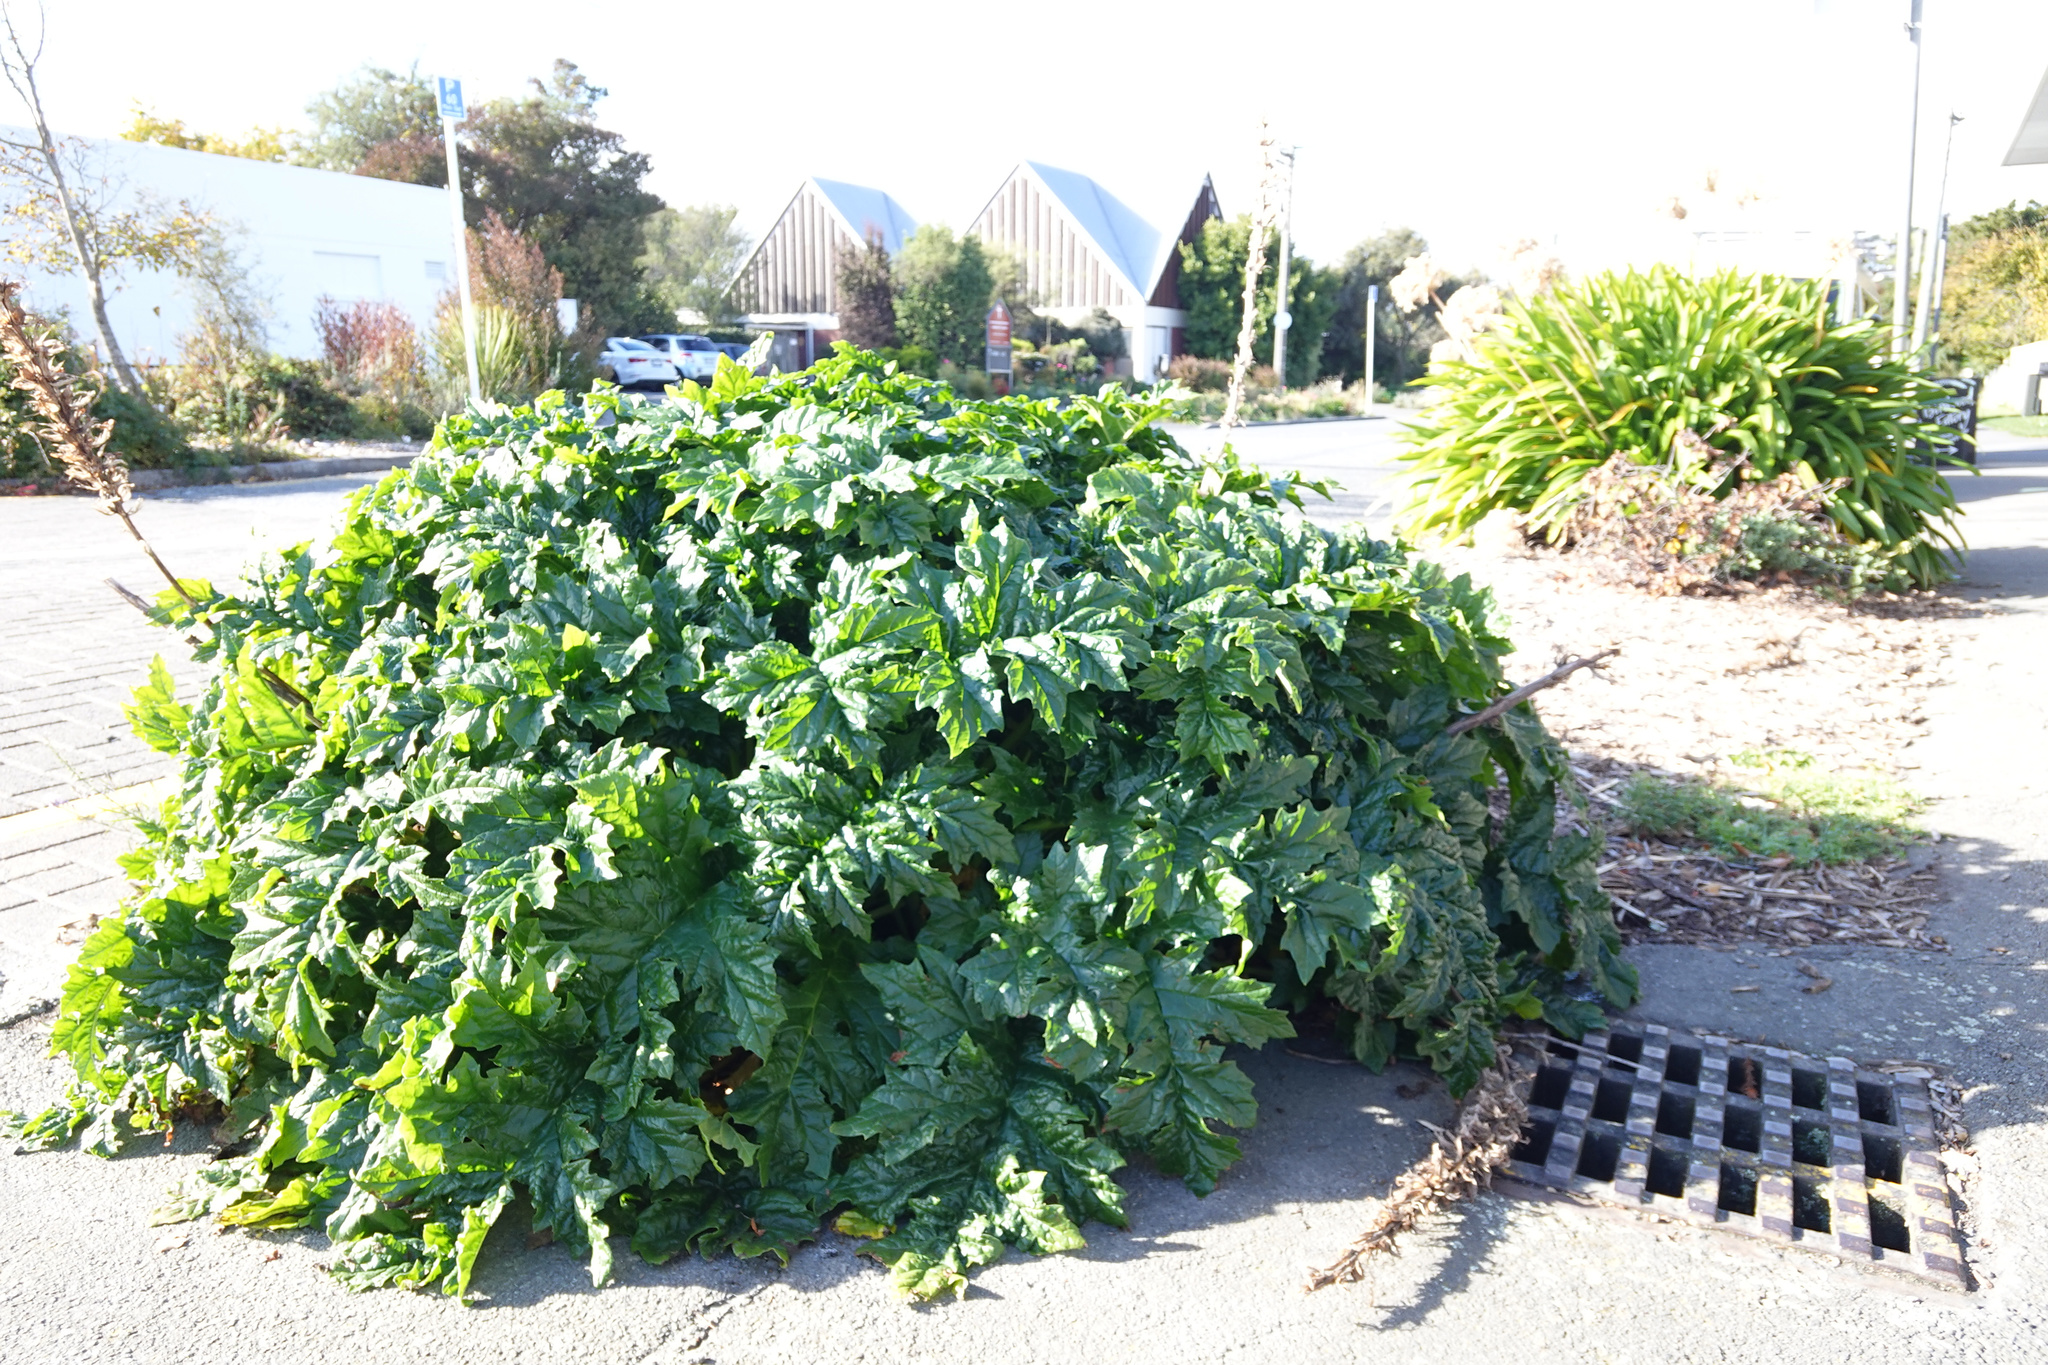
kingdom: Plantae
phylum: Tracheophyta
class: Magnoliopsida
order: Lamiales
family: Acanthaceae
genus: Acanthus
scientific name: Acanthus mollis
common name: Bear's-breech
